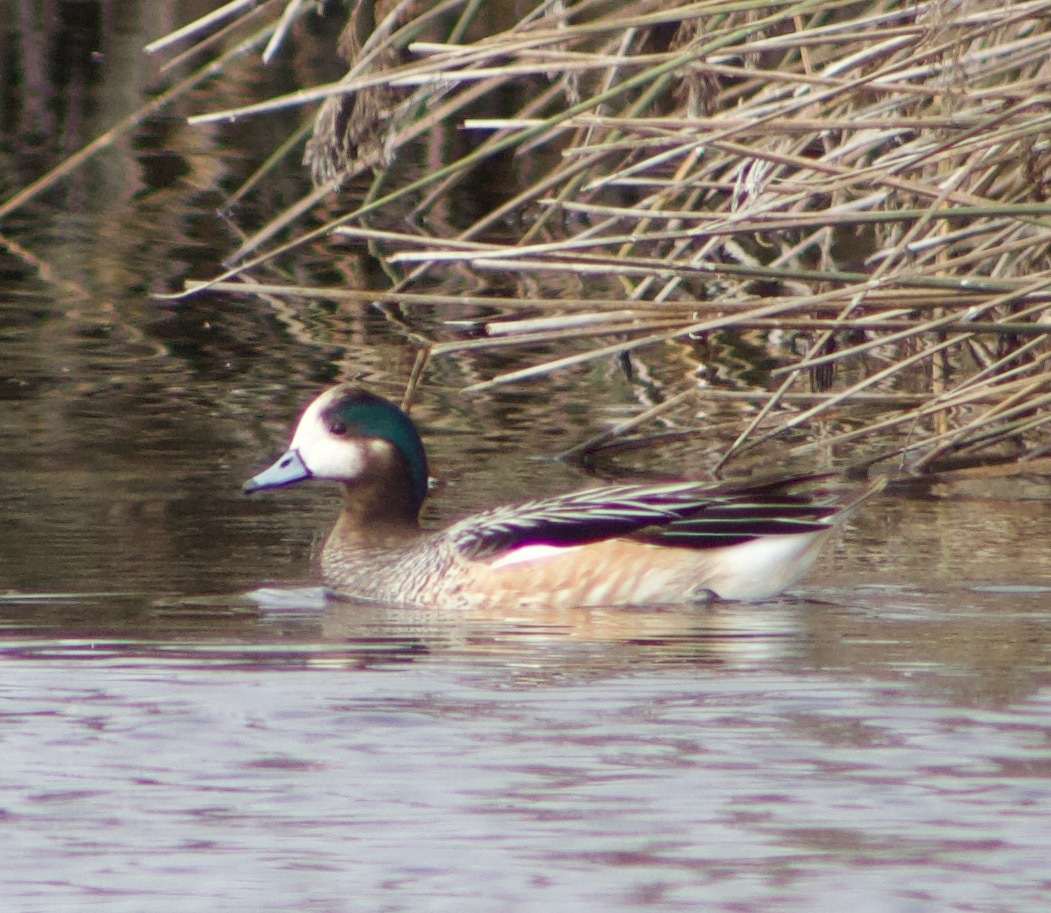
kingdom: Animalia
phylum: Chordata
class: Aves
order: Anseriformes
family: Anatidae
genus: Mareca
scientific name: Mareca sibilatrix
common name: Chiloe wigeon
